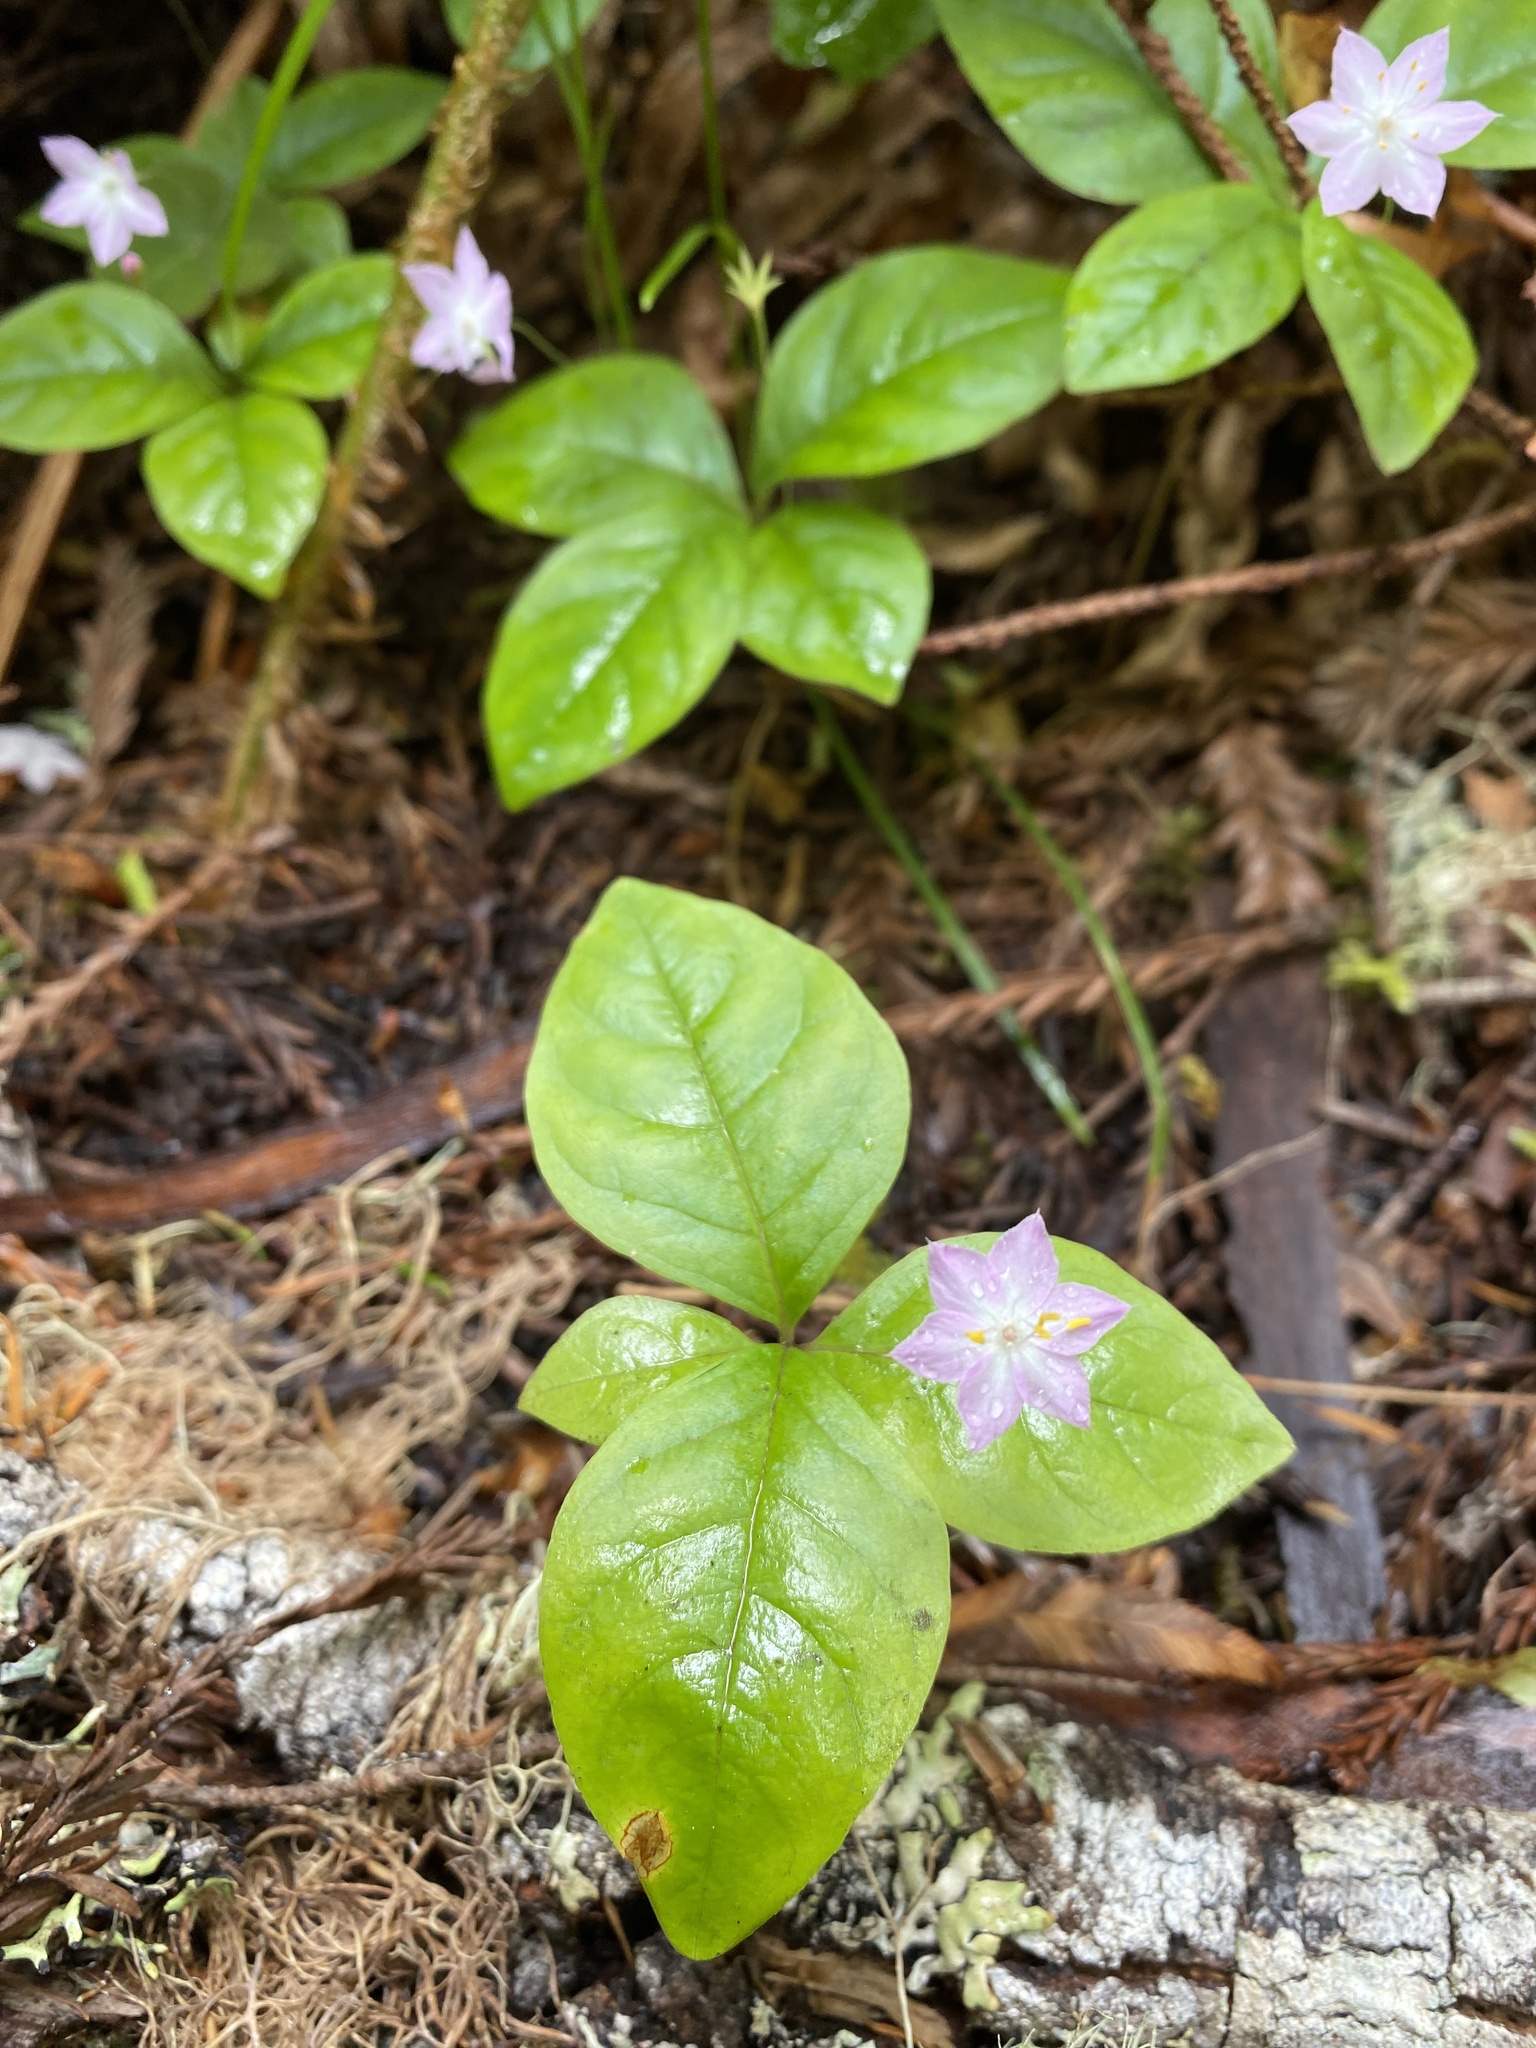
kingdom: Plantae
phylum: Tracheophyta
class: Magnoliopsida
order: Ericales
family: Primulaceae
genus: Lysimachia
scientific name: Lysimachia latifolia
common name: Pacific starflower
